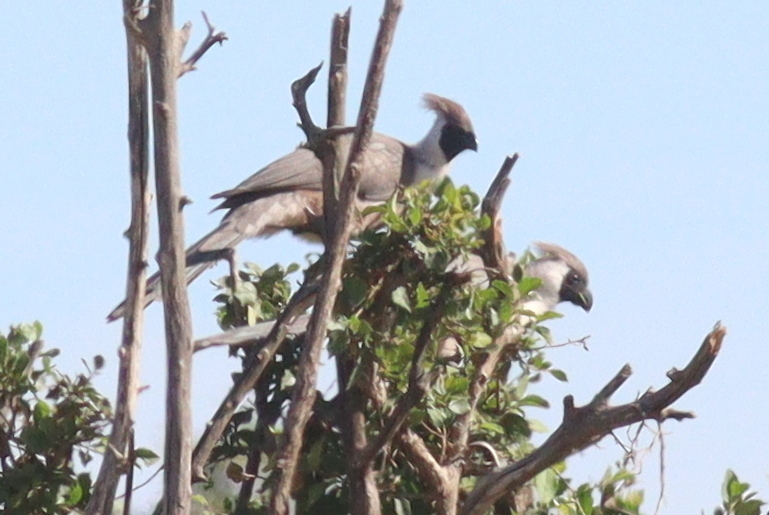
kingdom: Animalia
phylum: Chordata
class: Aves
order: Musophagiformes
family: Musophagidae
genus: Corythaixoides
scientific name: Corythaixoides personatus
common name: Bare-faced go-away-bird
